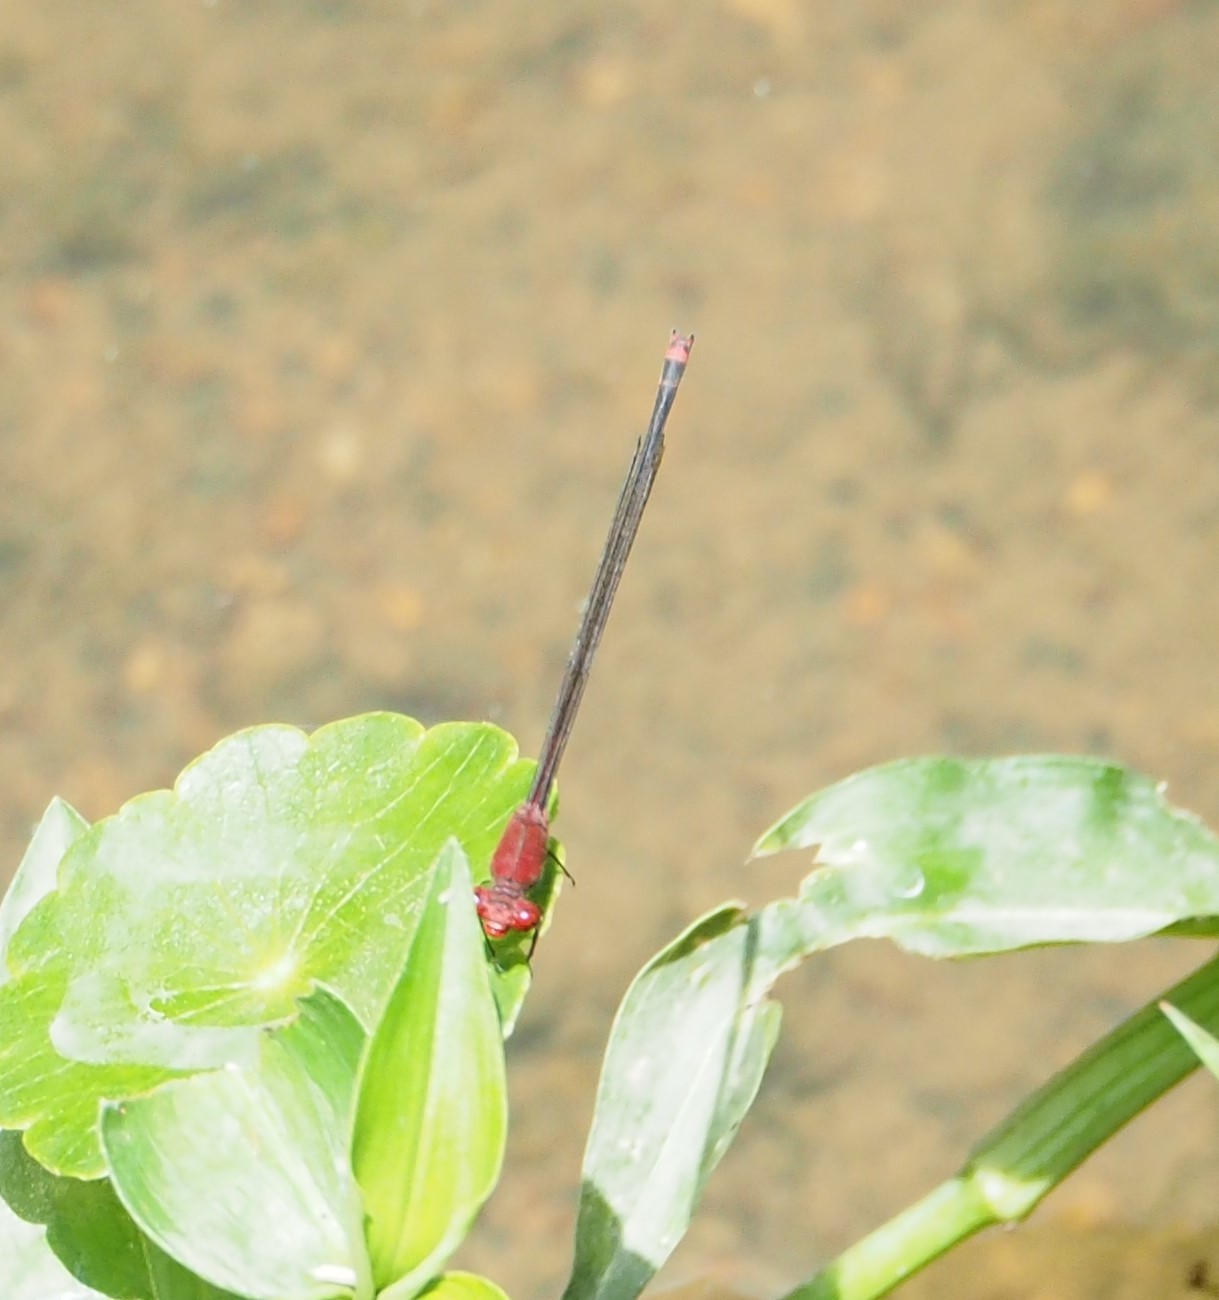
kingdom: Animalia
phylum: Arthropoda
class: Insecta
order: Odonata
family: Coenagrionidae
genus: Pseudagrion
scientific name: Pseudagrion pilidorsum
